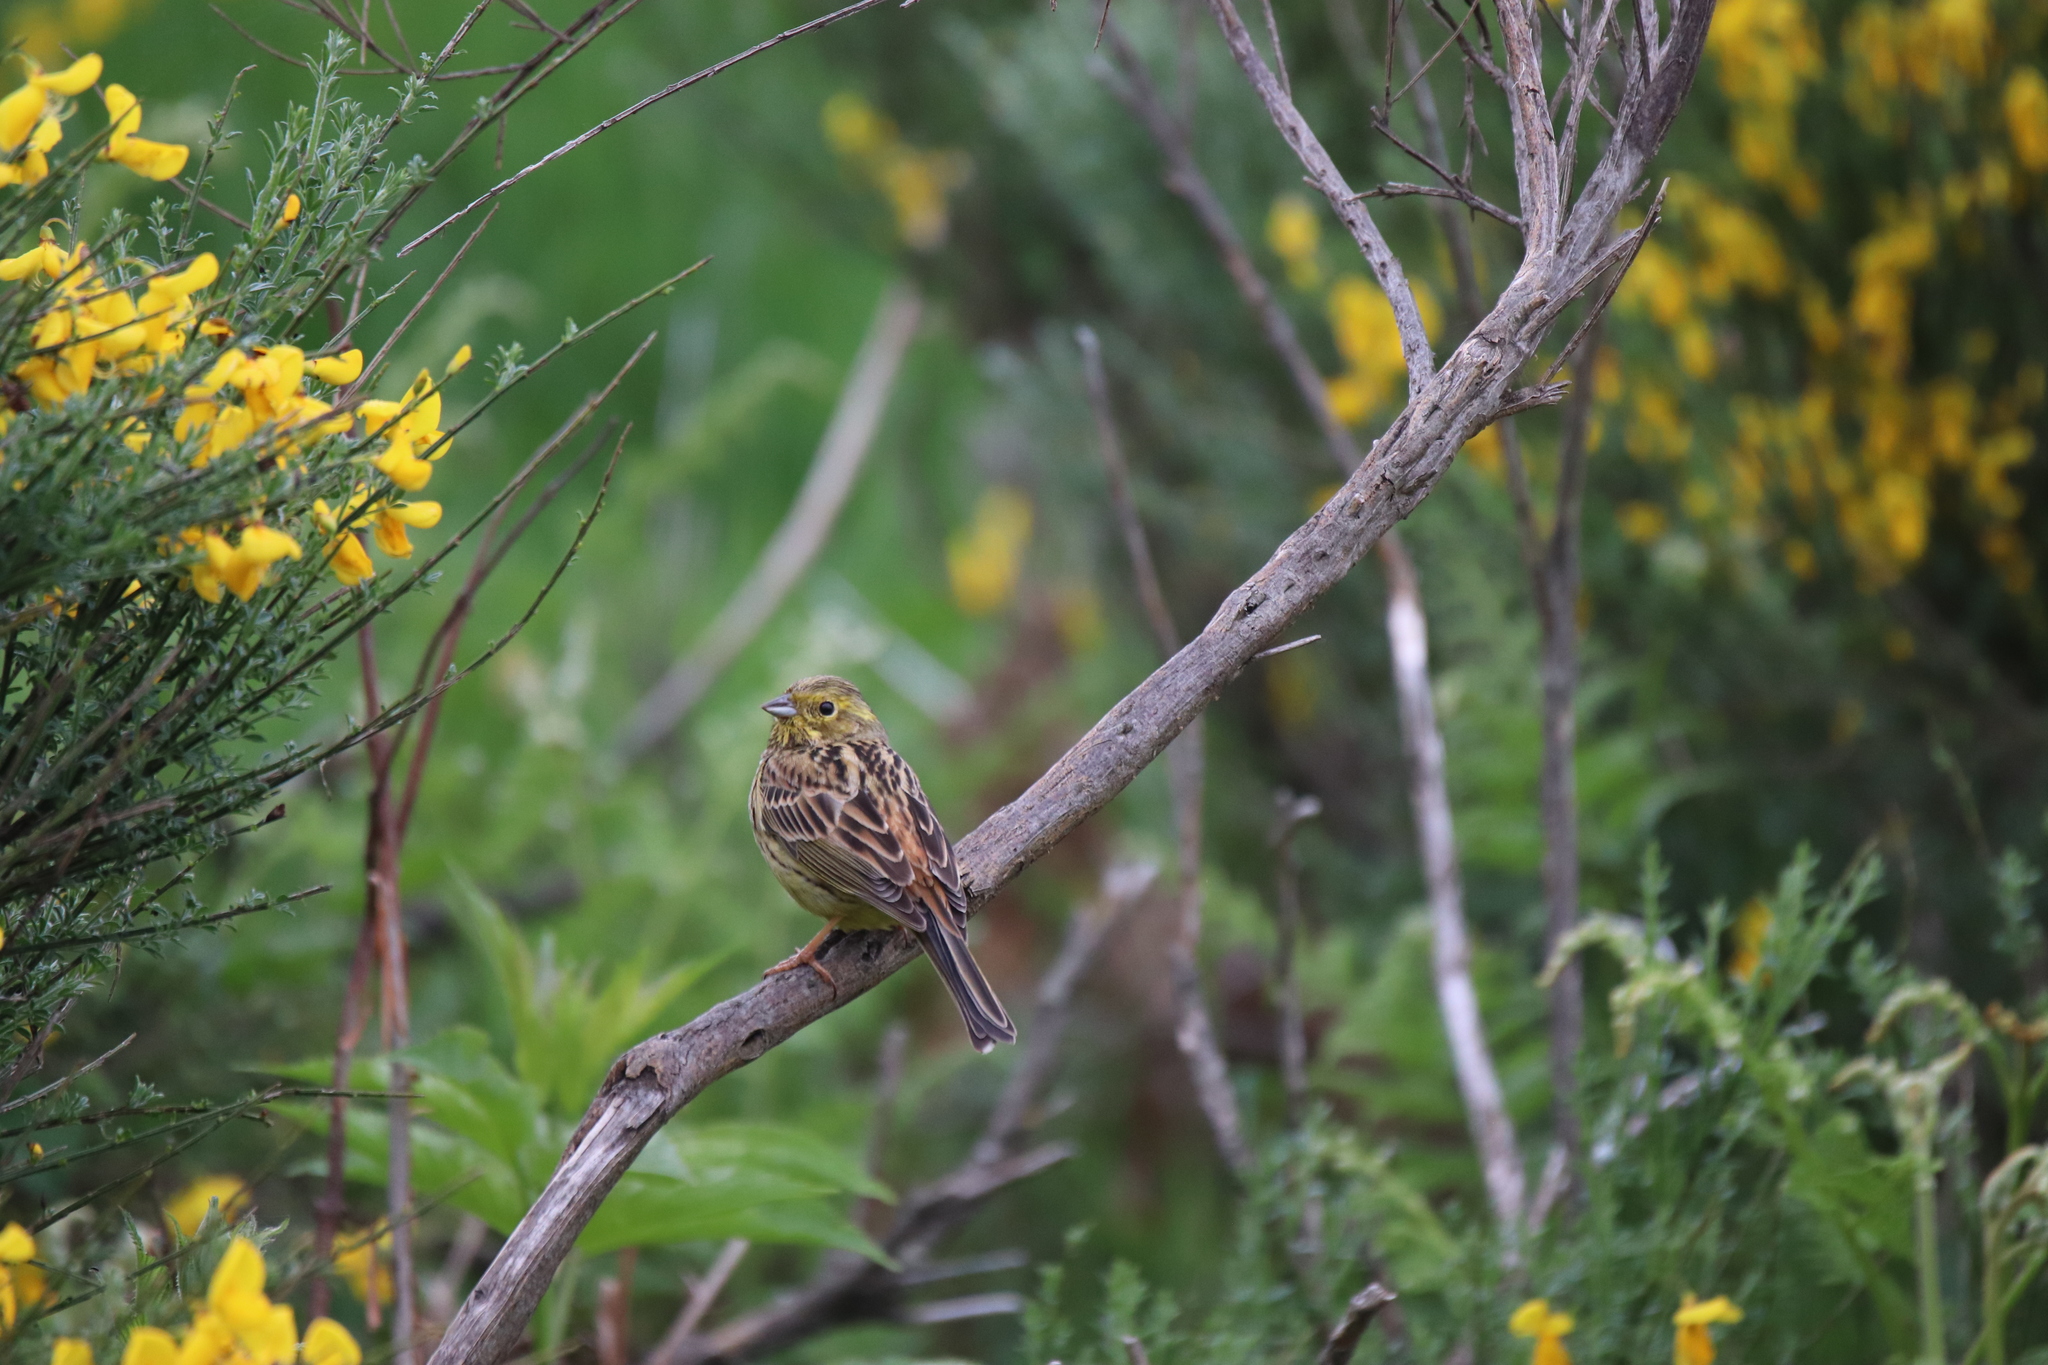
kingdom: Animalia
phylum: Chordata
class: Aves
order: Passeriformes
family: Emberizidae
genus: Emberiza
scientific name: Emberiza citrinella
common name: Yellowhammer
